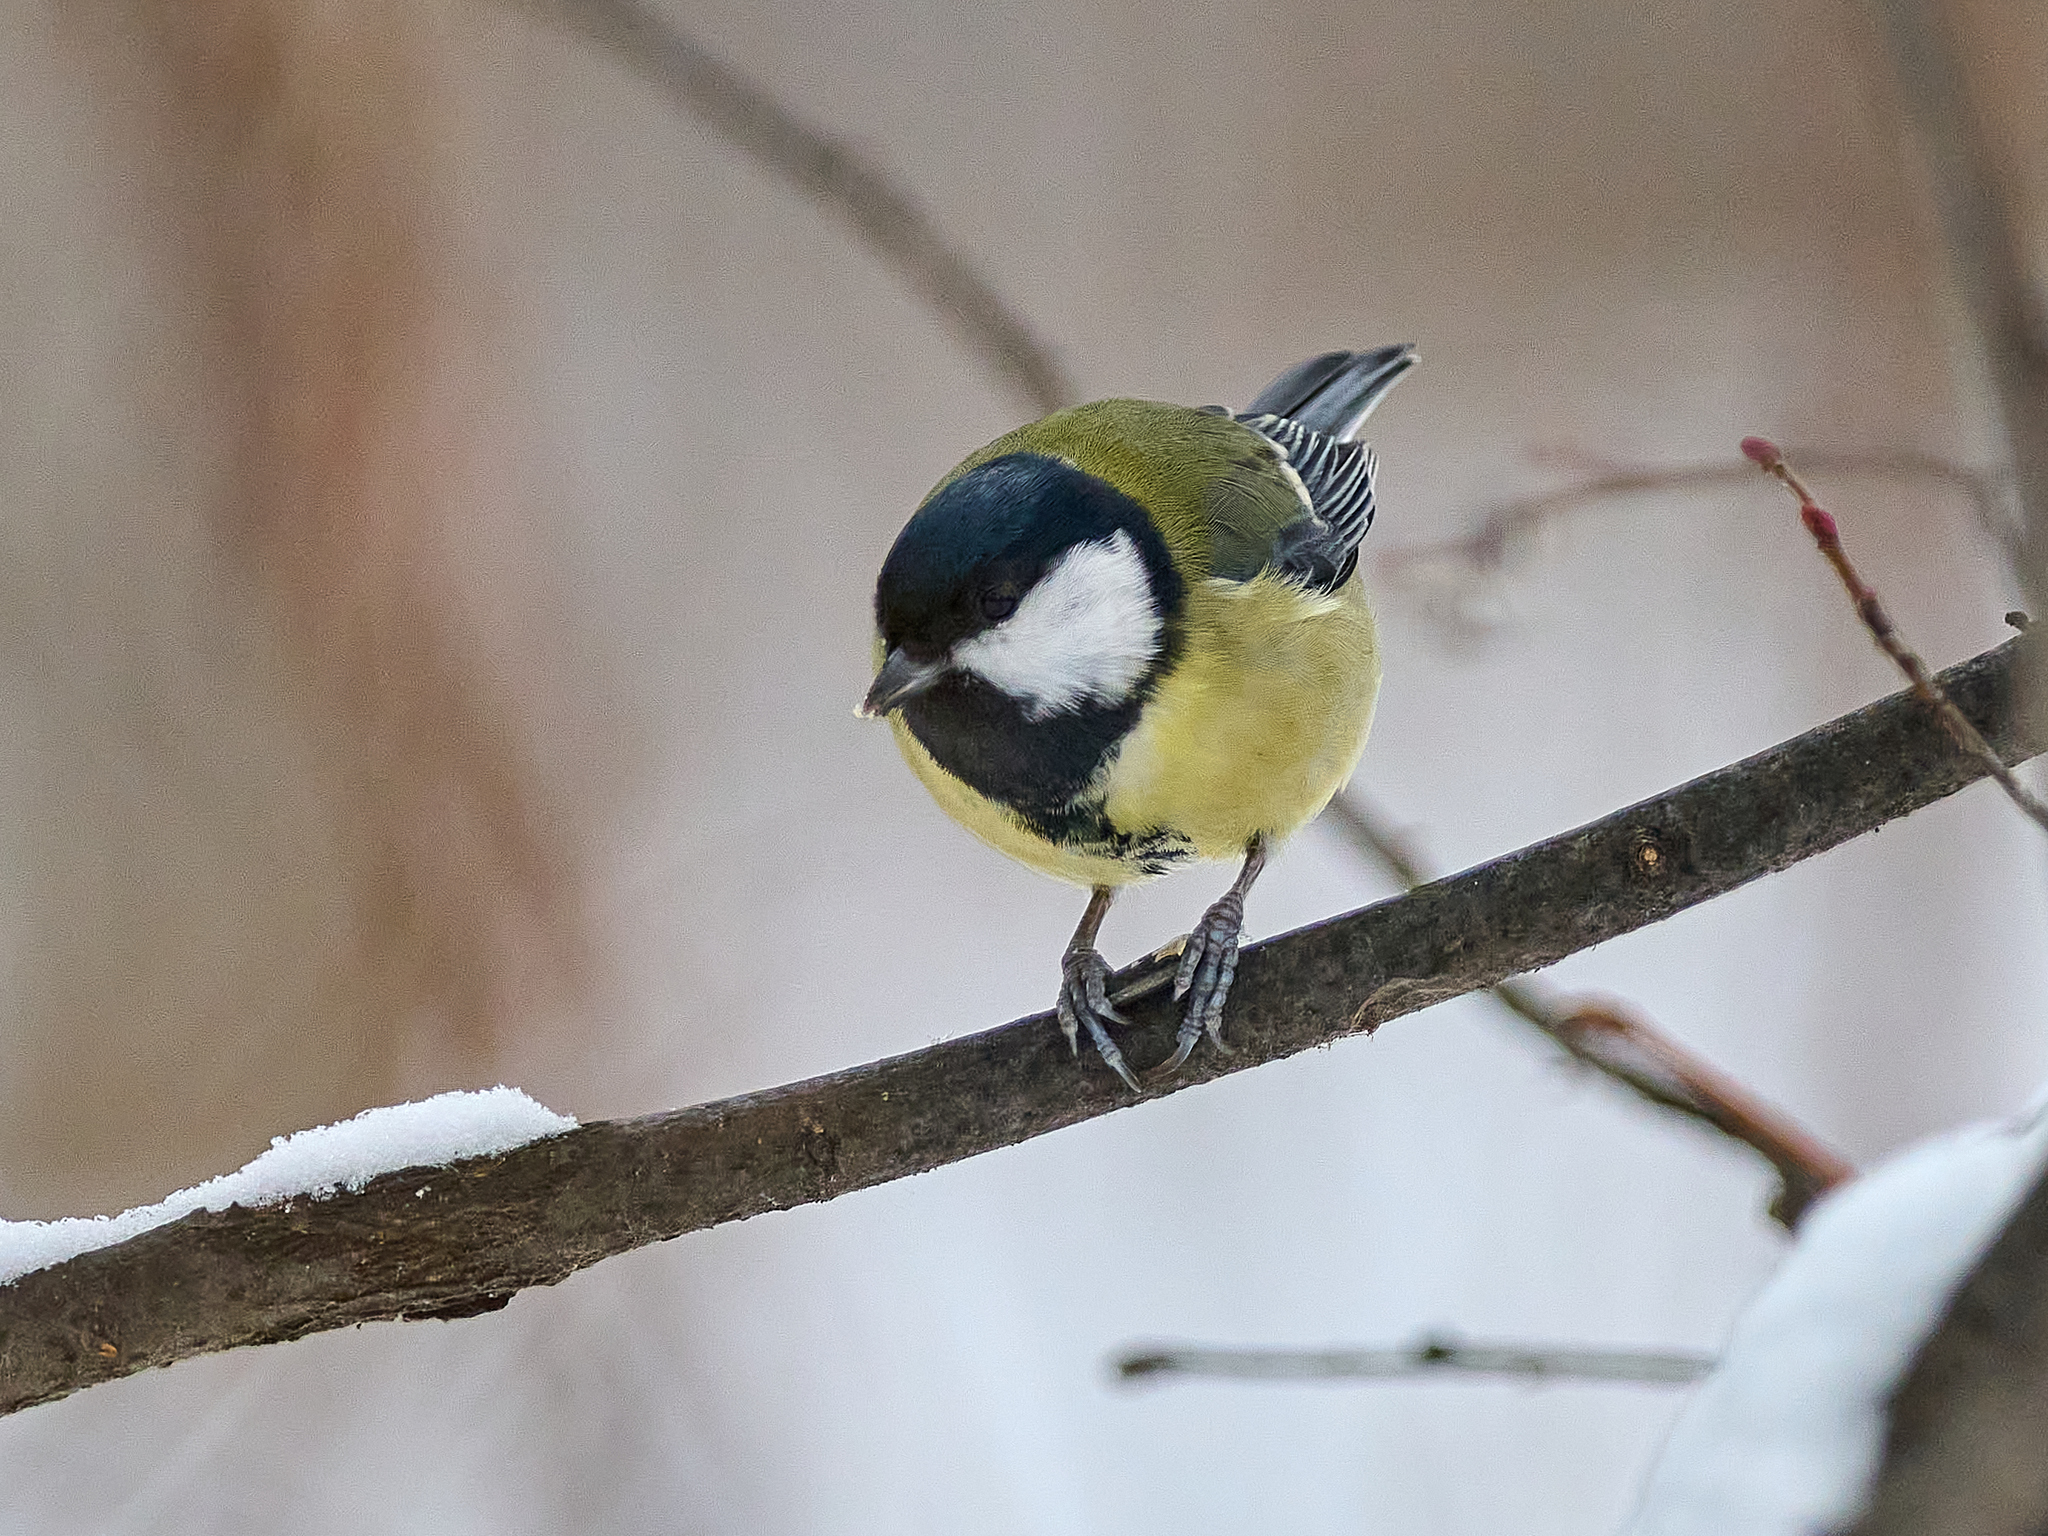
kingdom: Animalia
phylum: Chordata
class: Aves
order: Passeriformes
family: Paridae
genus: Parus
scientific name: Parus major
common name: Great tit
